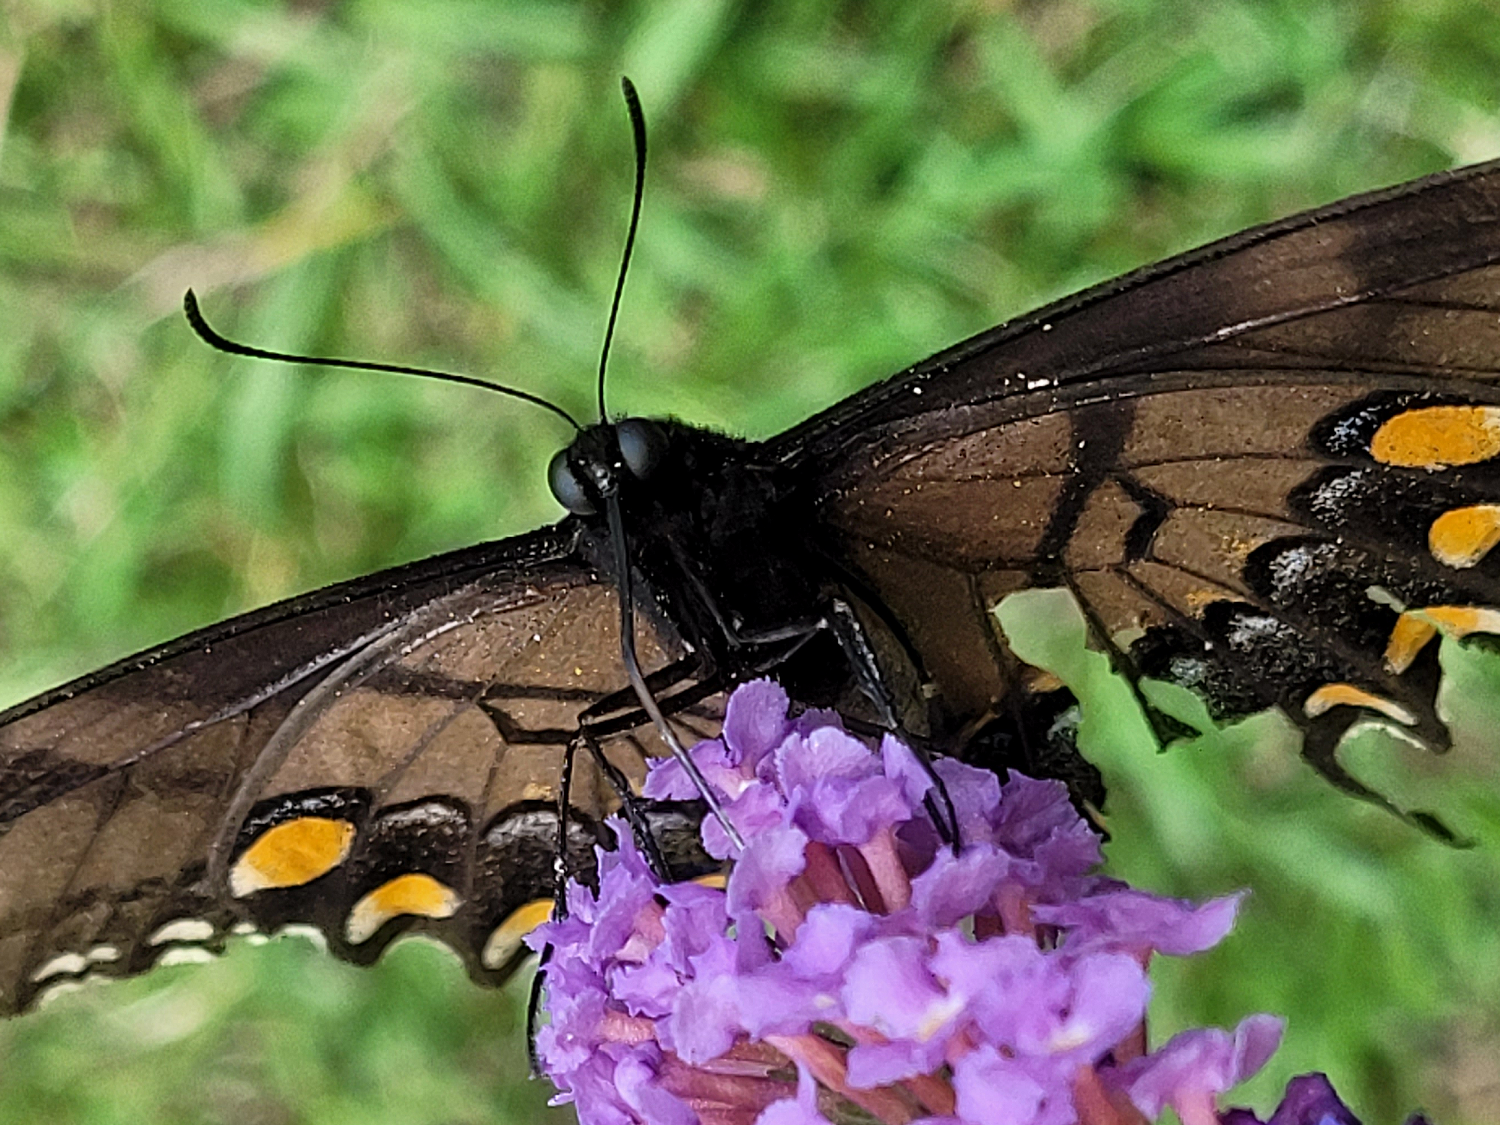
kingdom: Animalia
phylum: Arthropoda
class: Insecta
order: Lepidoptera
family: Papilionidae
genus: Papilio
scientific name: Papilio glaucus
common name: Tiger swallowtail
